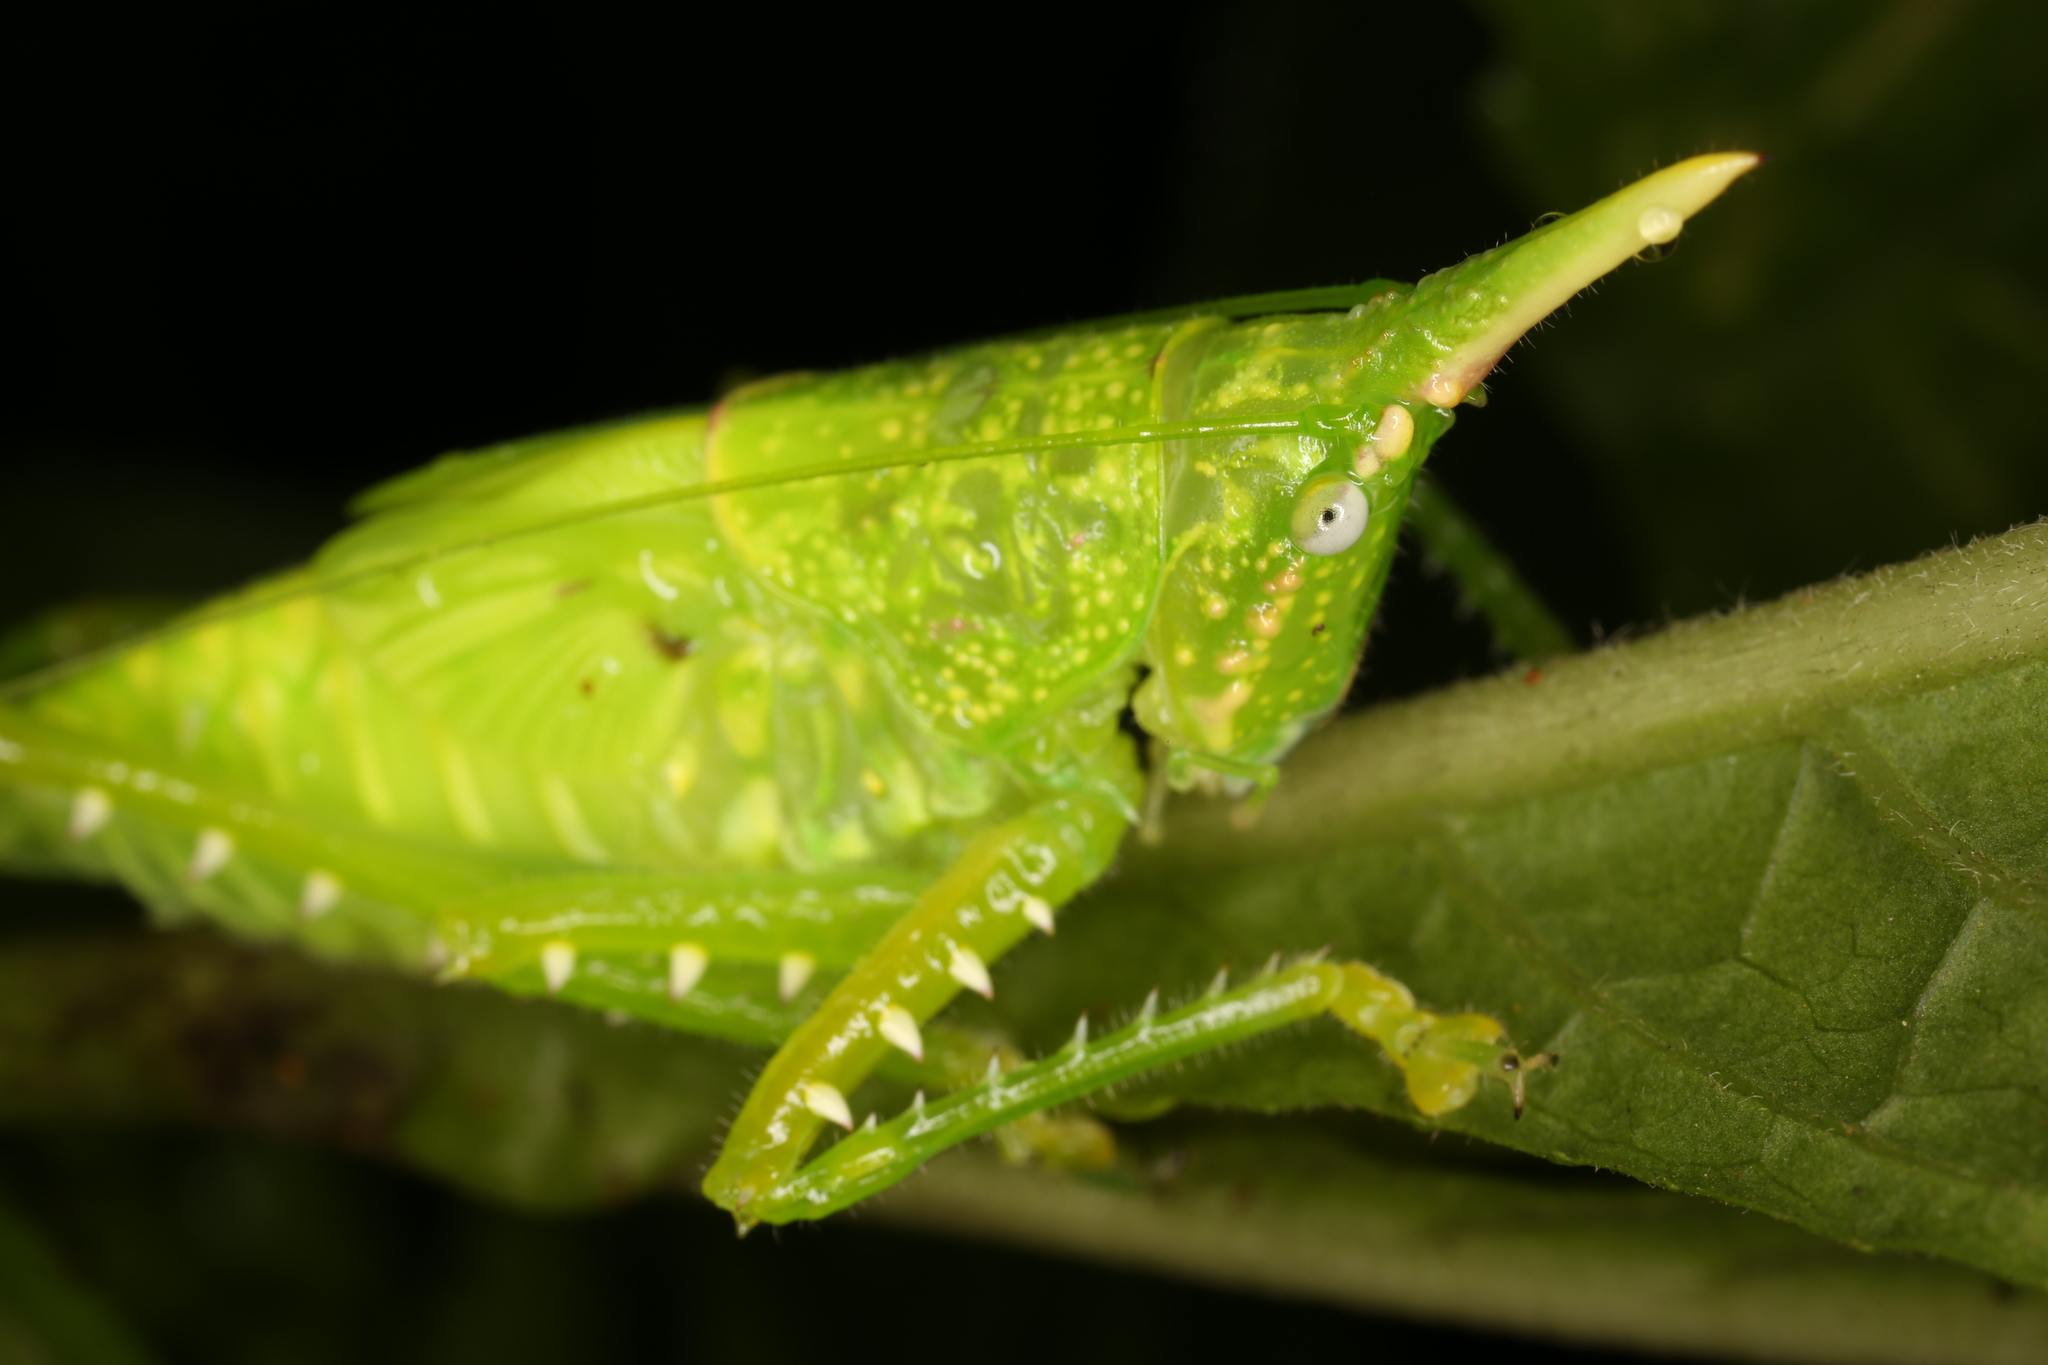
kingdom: Animalia
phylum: Arthropoda
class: Insecta
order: Orthoptera
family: Tettigoniidae
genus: Copiphora
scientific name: Copiphora rhinoceros
